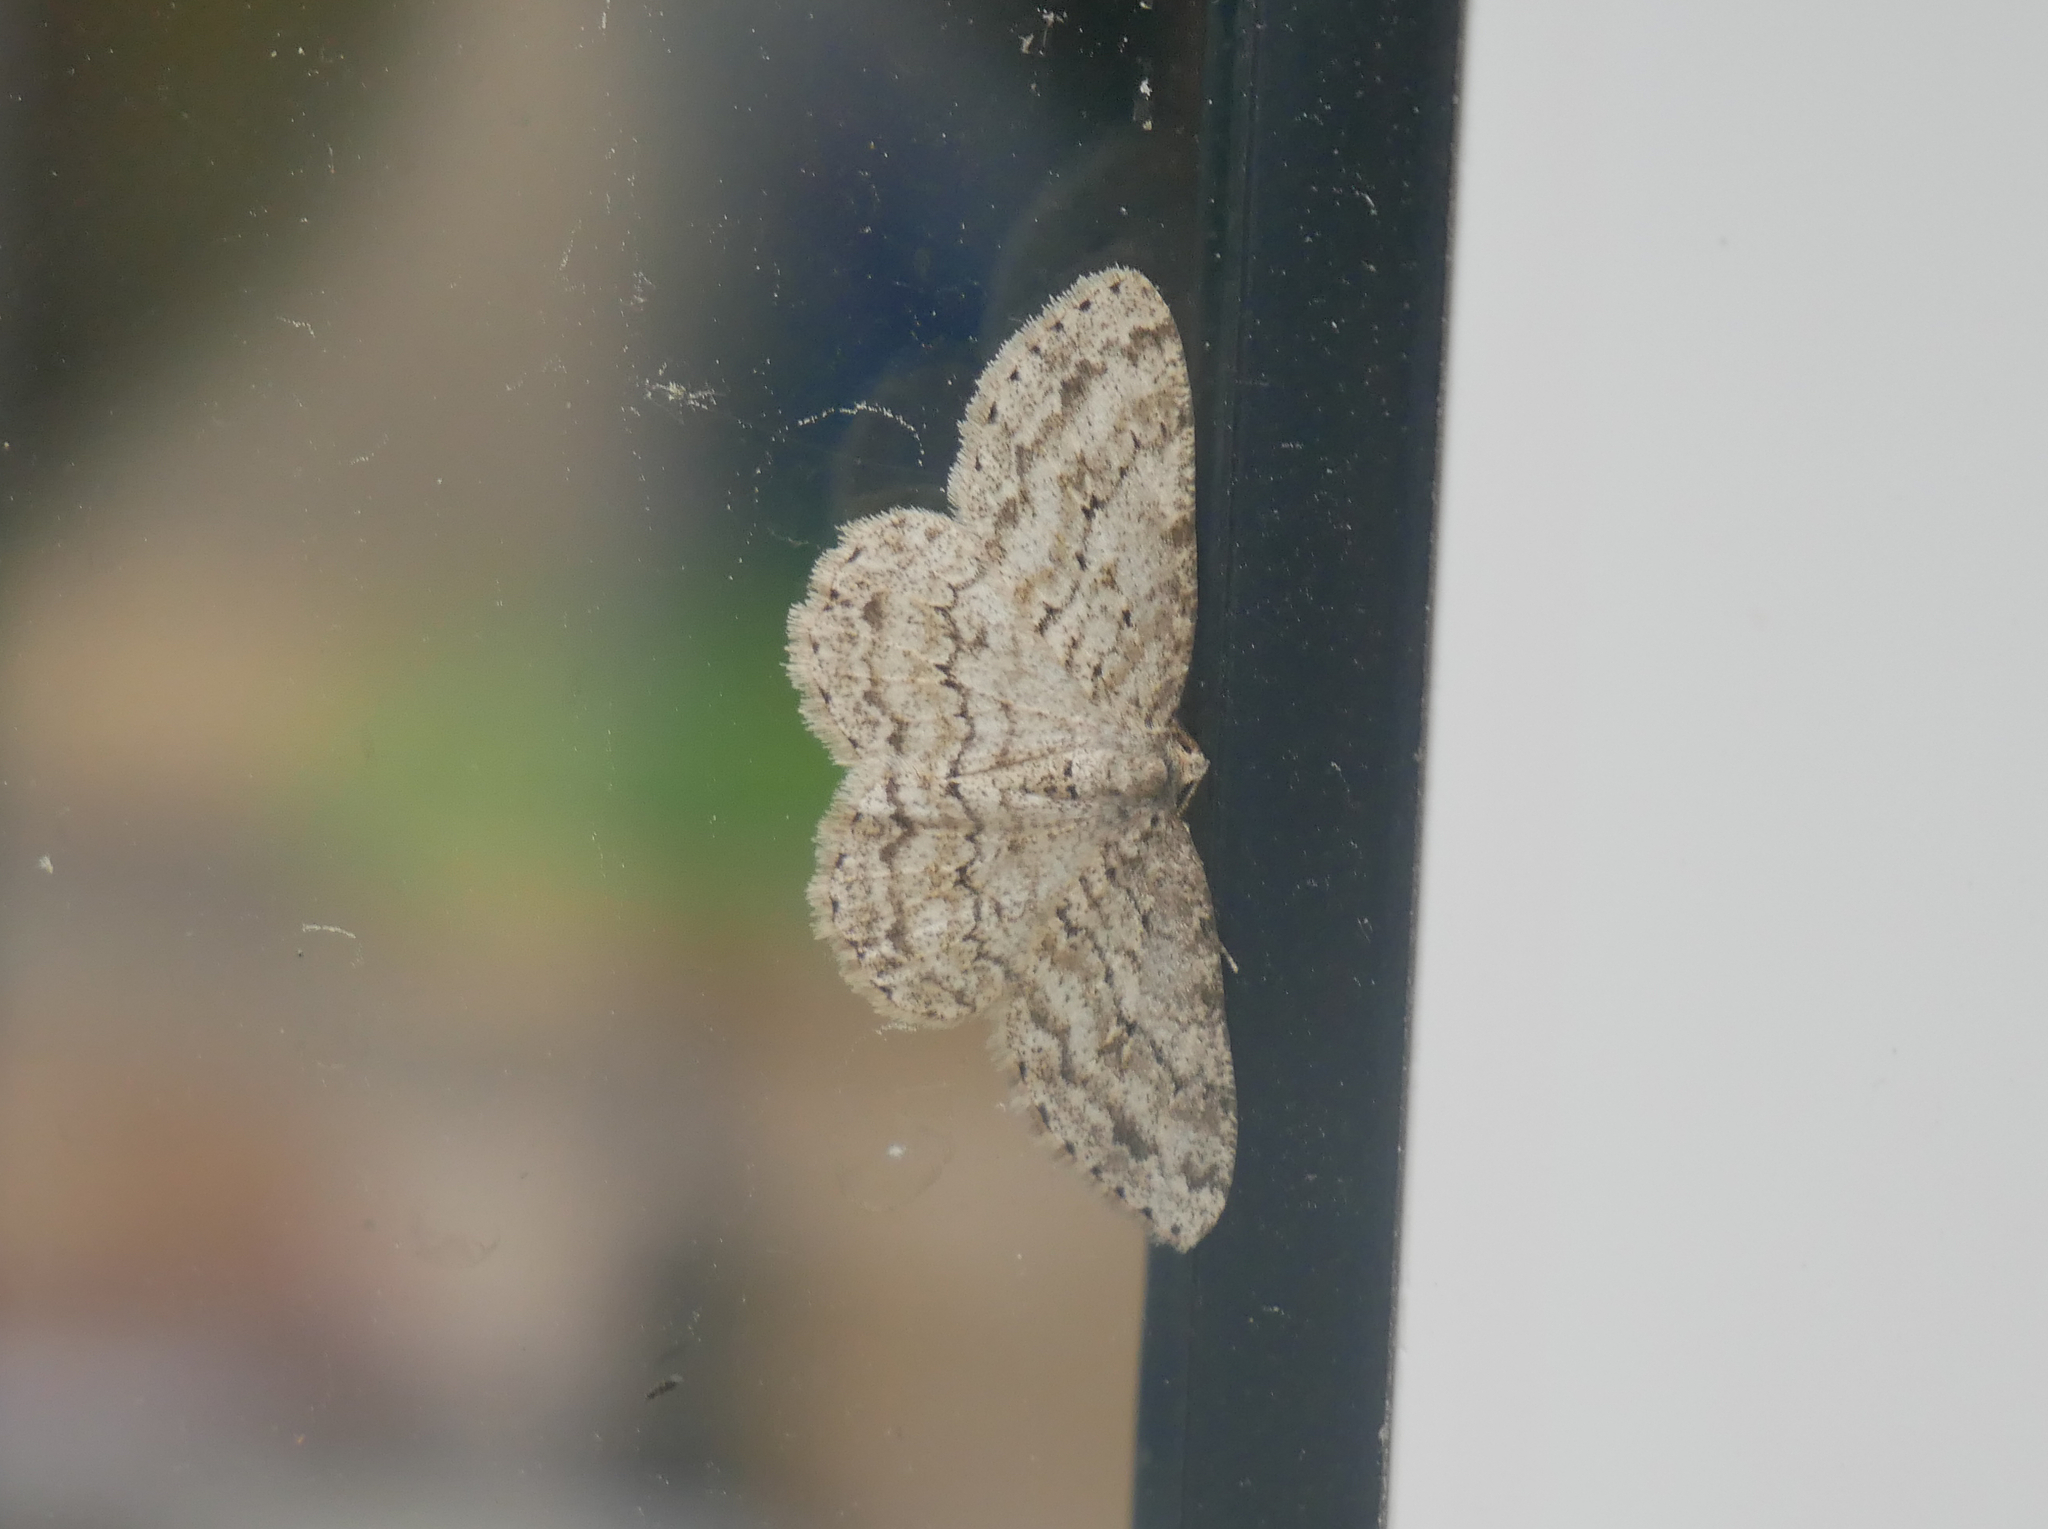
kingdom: Animalia
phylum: Arthropoda
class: Insecta
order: Lepidoptera
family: Geometridae
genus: Ectropis
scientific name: Ectropis crepuscularia
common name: Engrailed
